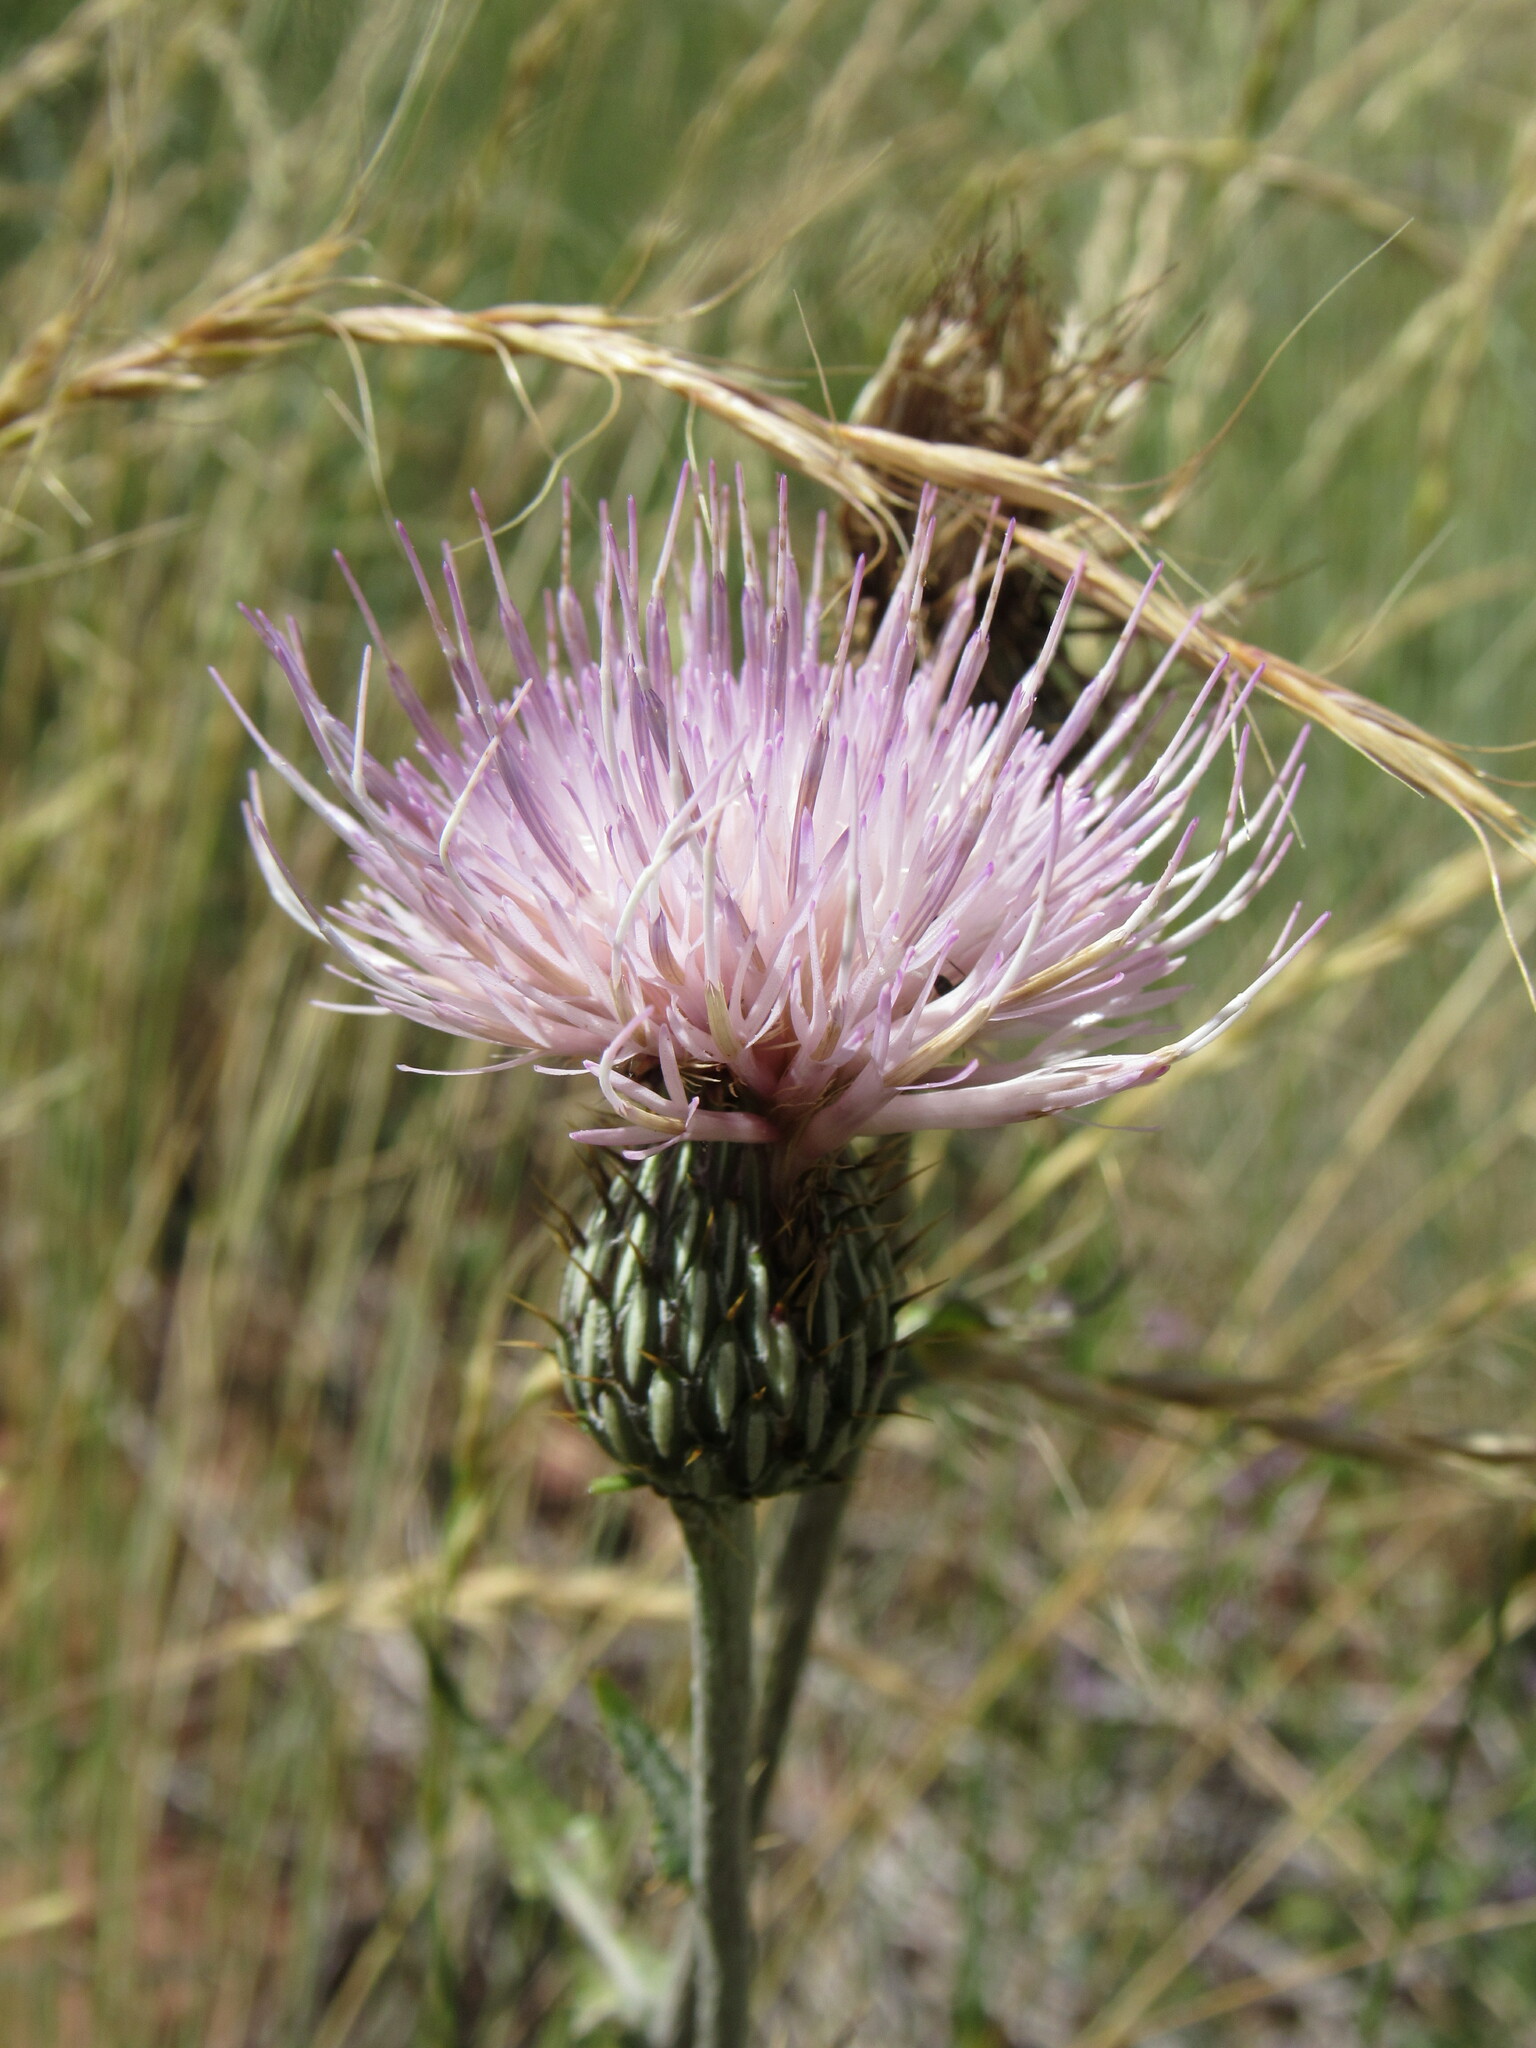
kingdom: Plantae
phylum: Tracheophyta
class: Magnoliopsida
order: Asterales
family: Asteraceae
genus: Cirsium
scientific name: Cirsium tracyi
